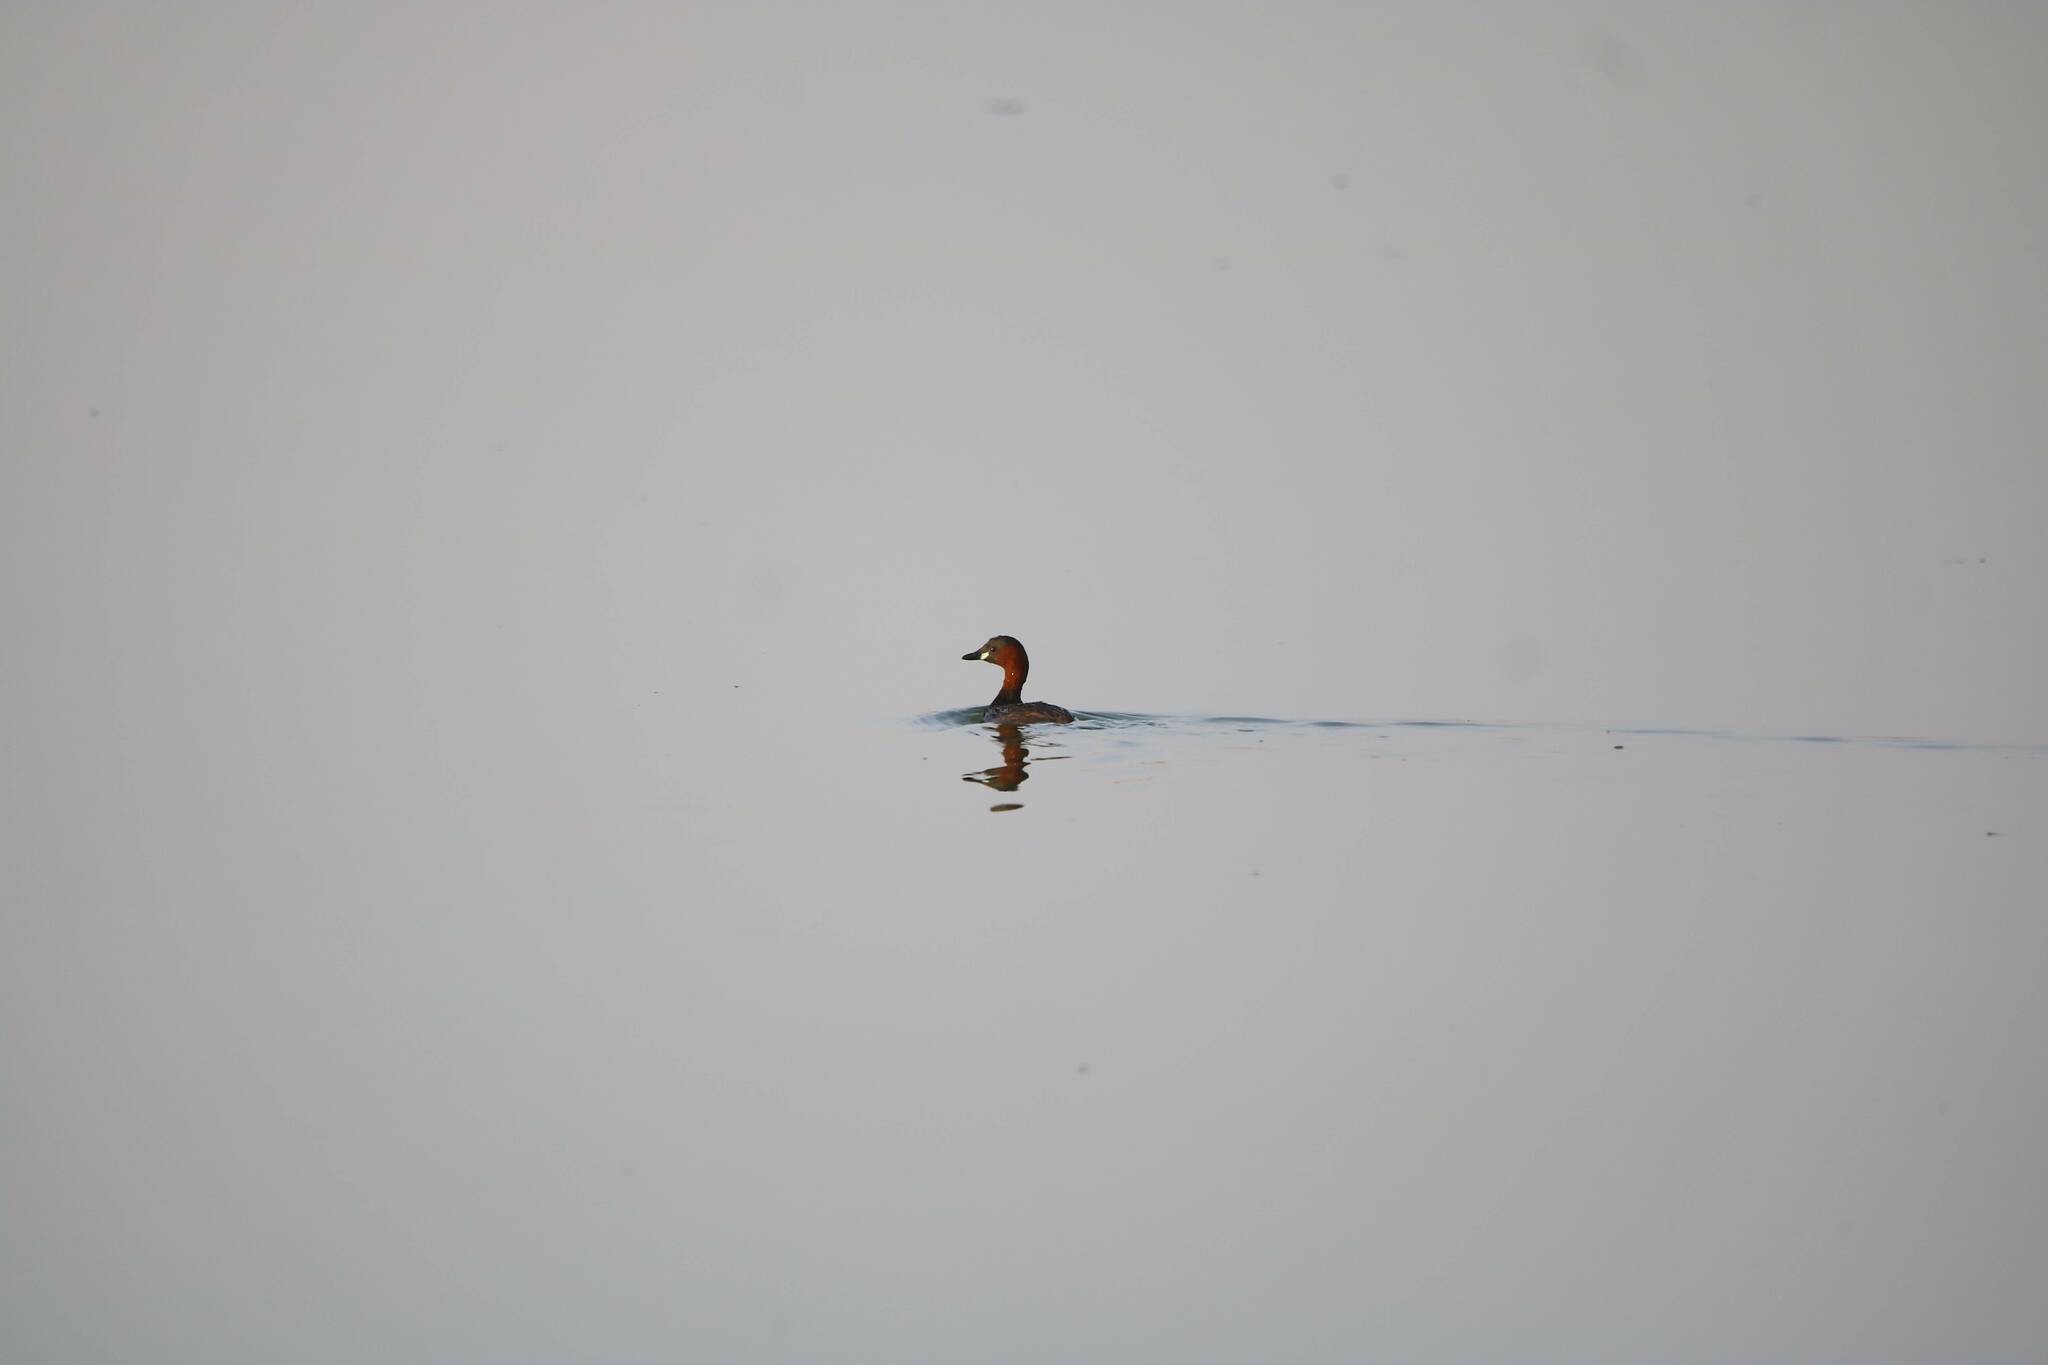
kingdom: Animalia
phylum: Chordata
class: Aves
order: Podicipediformes
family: Podicipedidae
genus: Tachybaptus
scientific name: Tachybaptus ruficollis
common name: Little grebe
